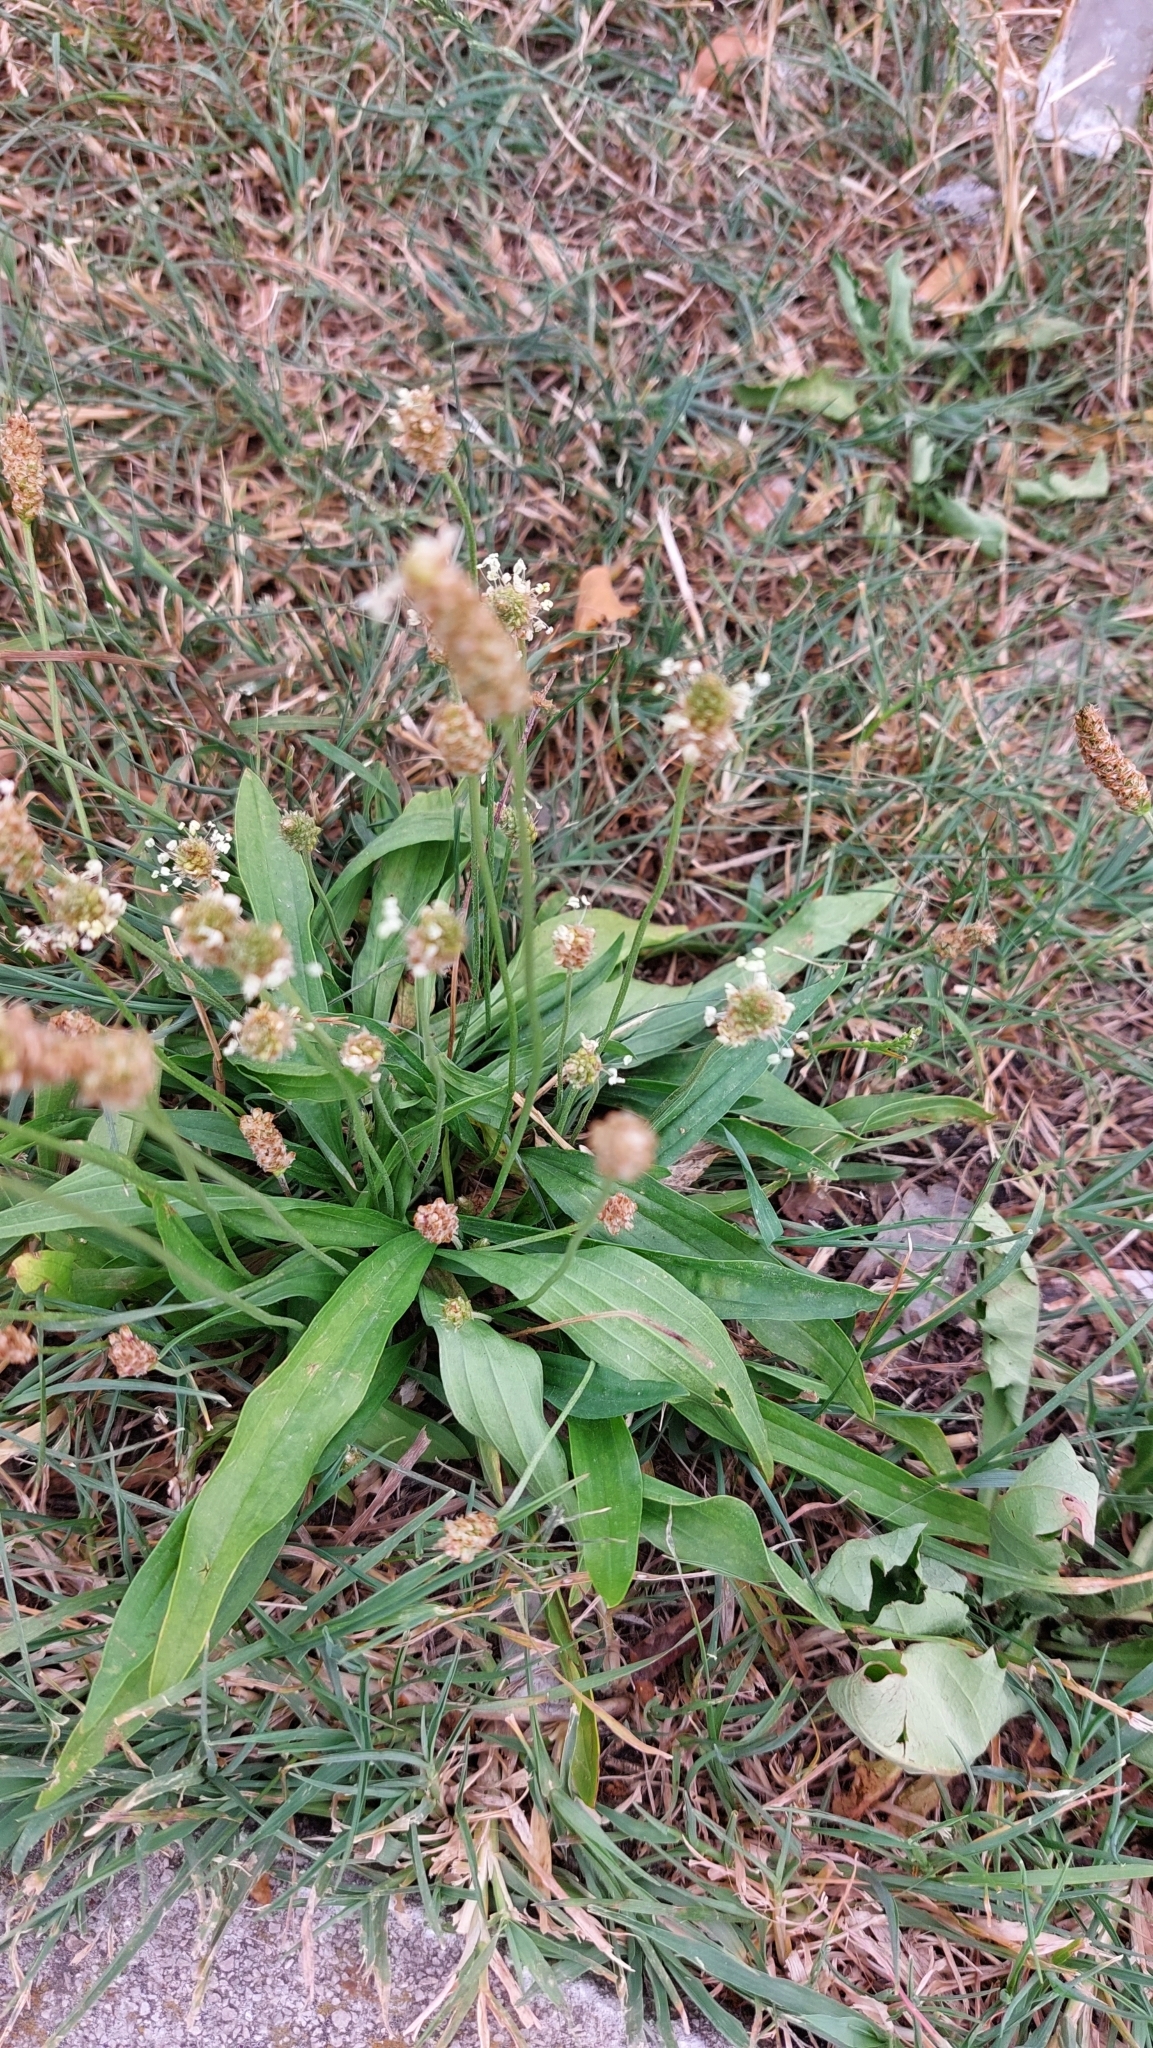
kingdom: Plantae
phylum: Tracheophyta
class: Magnoliopsida
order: Lamiales
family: Plantaginaceae
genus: Plantago
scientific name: Plantago lanceolata
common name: Ribwort plantain
